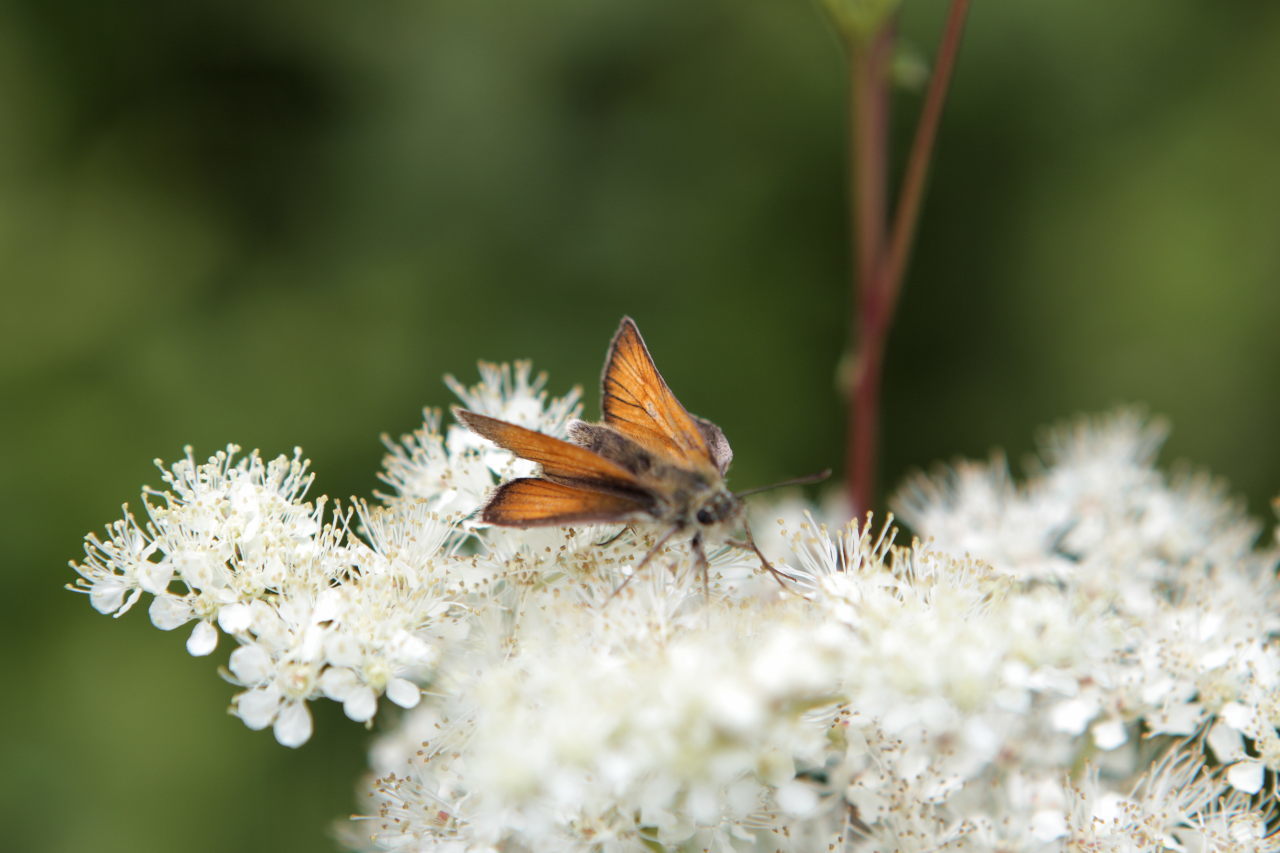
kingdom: Animalia
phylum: Arthropoda
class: Insecta
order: Lepidoptera
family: Hesperiidae
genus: Thymelicus
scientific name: Thymelicus sylvestris
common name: Small skipper
